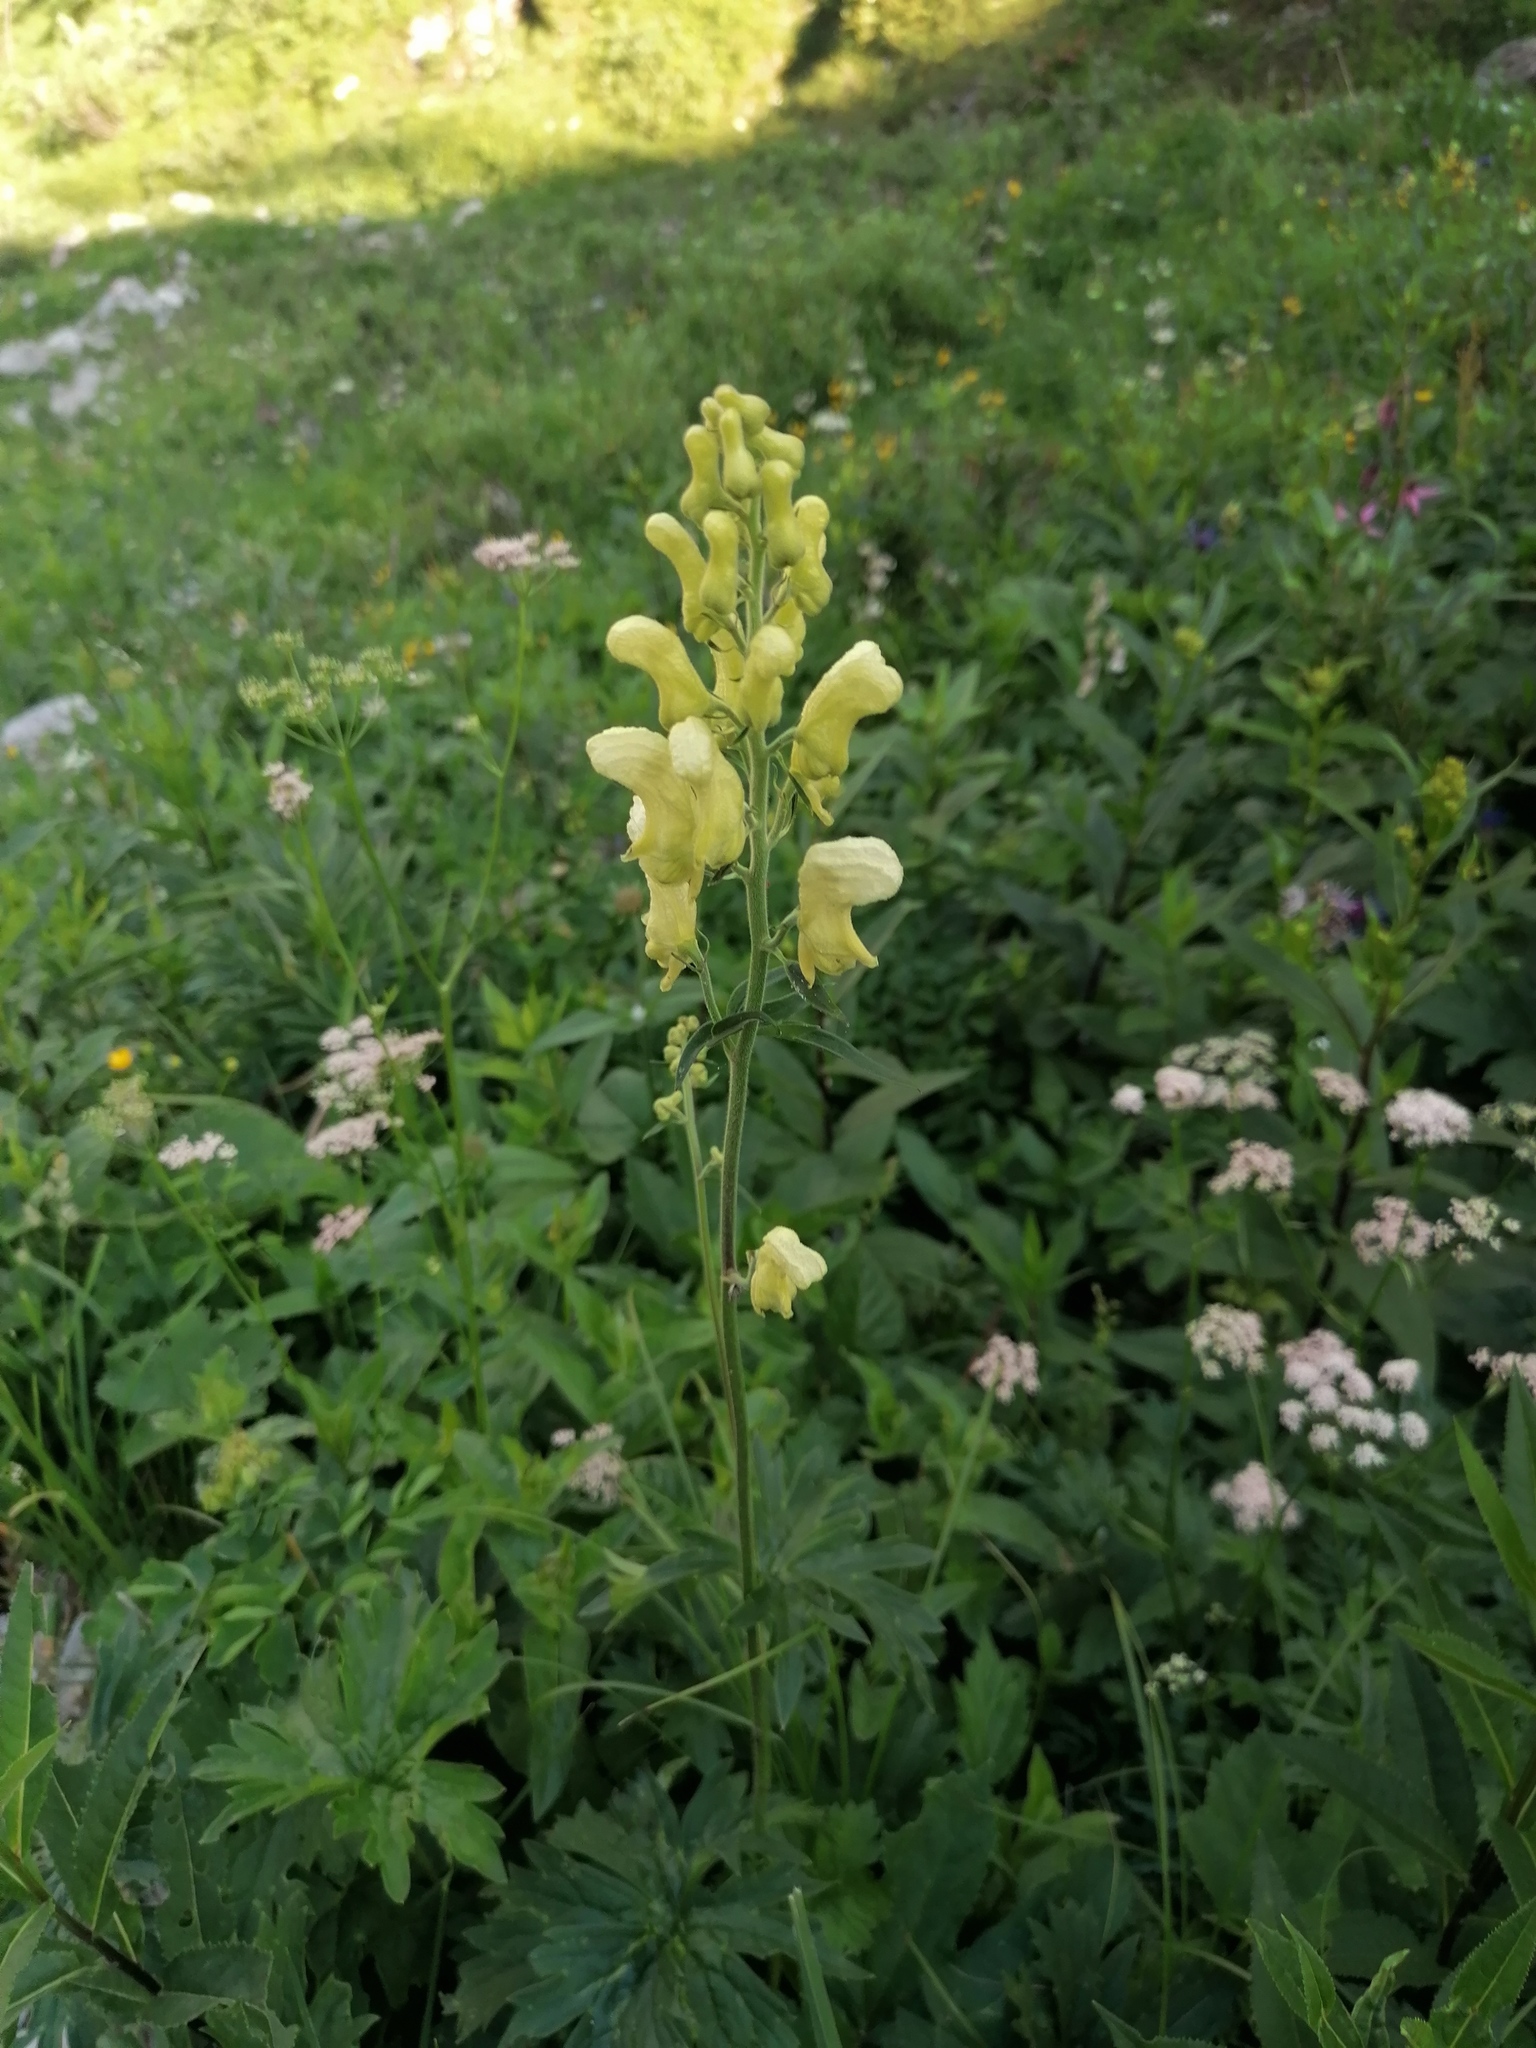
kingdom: Plantae
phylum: Tracheophyta
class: Magnoliopsida
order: Ranunculales
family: Ranunculaceae
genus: Aconitum
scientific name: Aconitum lycoctonum
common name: Wolf's-bane
